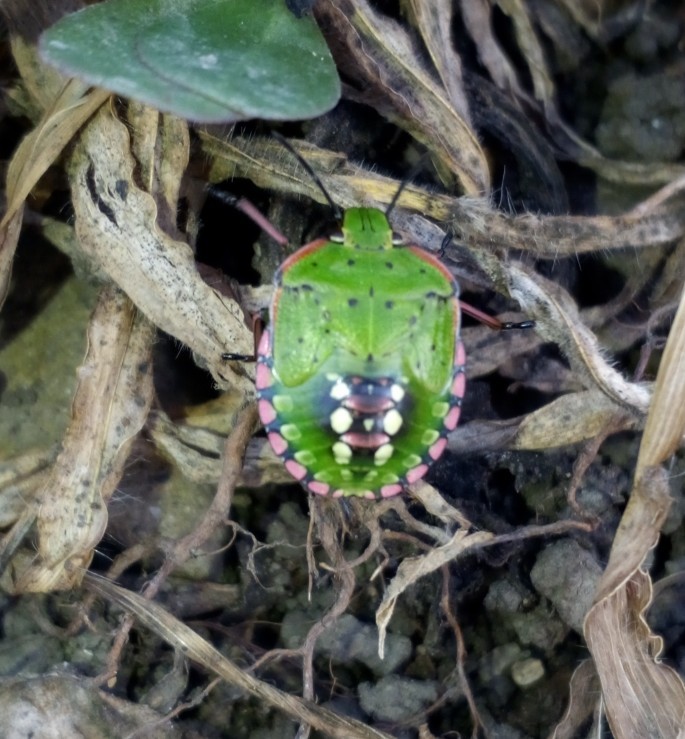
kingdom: Animalia
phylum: Arthropoda
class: Insecta
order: Hemiptera
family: Pentatomidae
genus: Nezara
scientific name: Nezara viridula
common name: Southern green stink bug
